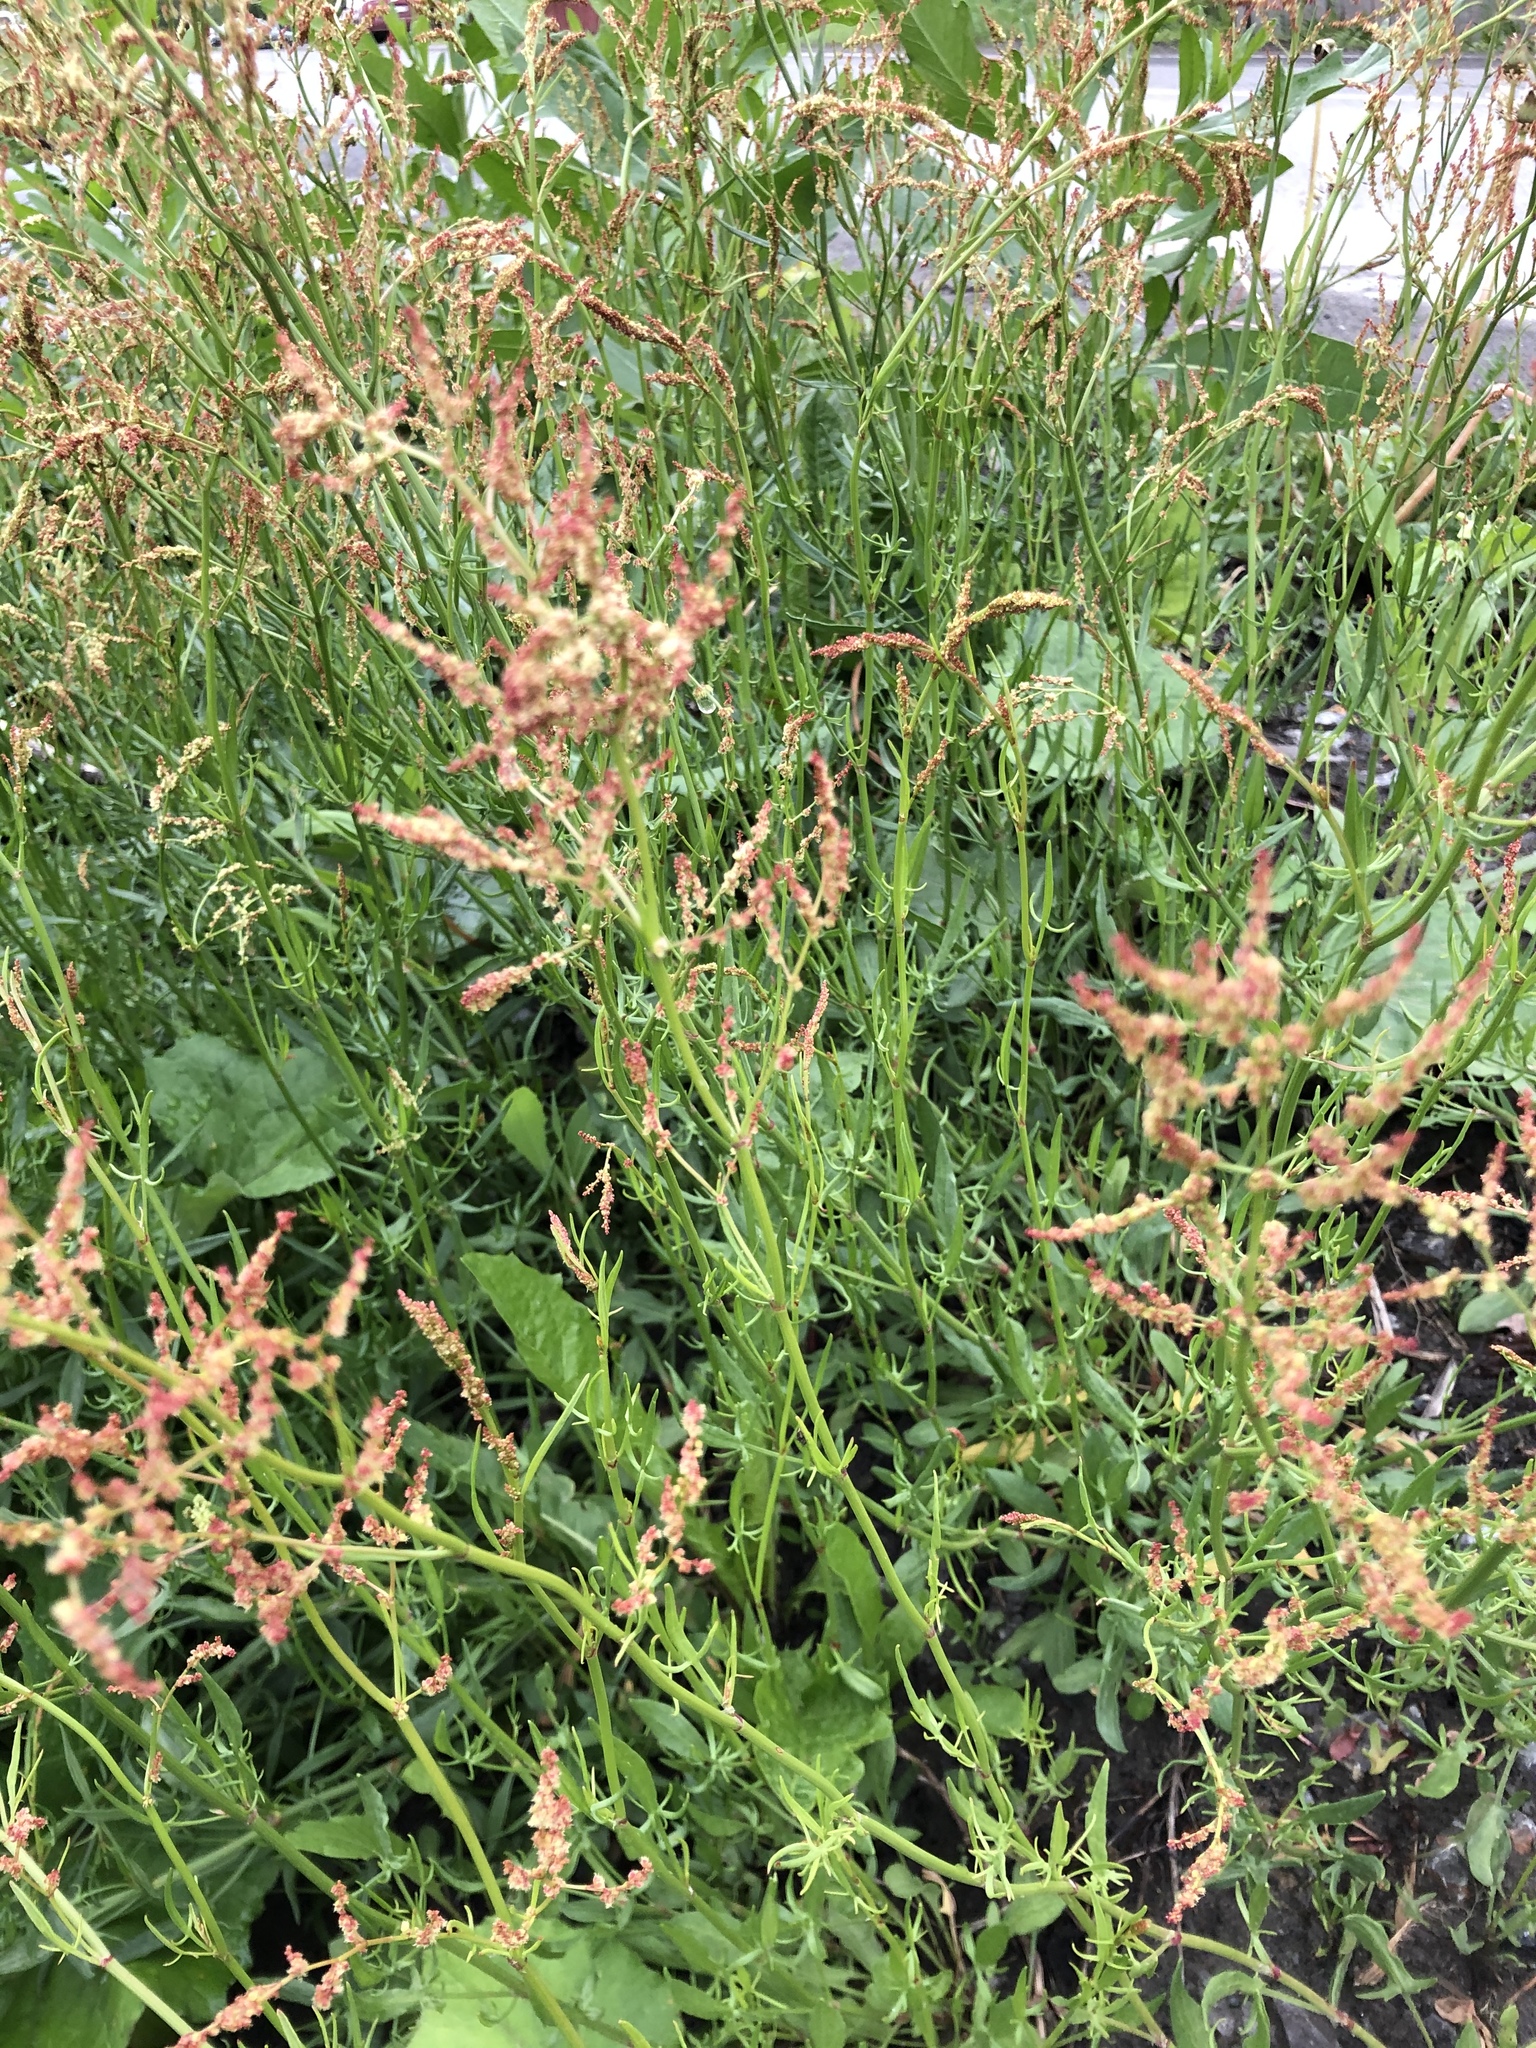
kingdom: Plantae
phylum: Tracheophyta
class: Magnoliopsida
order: Caryophyllales
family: Polygonaceae
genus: Rumex
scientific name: Rumex acetosella
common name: Common sheep sorrel
